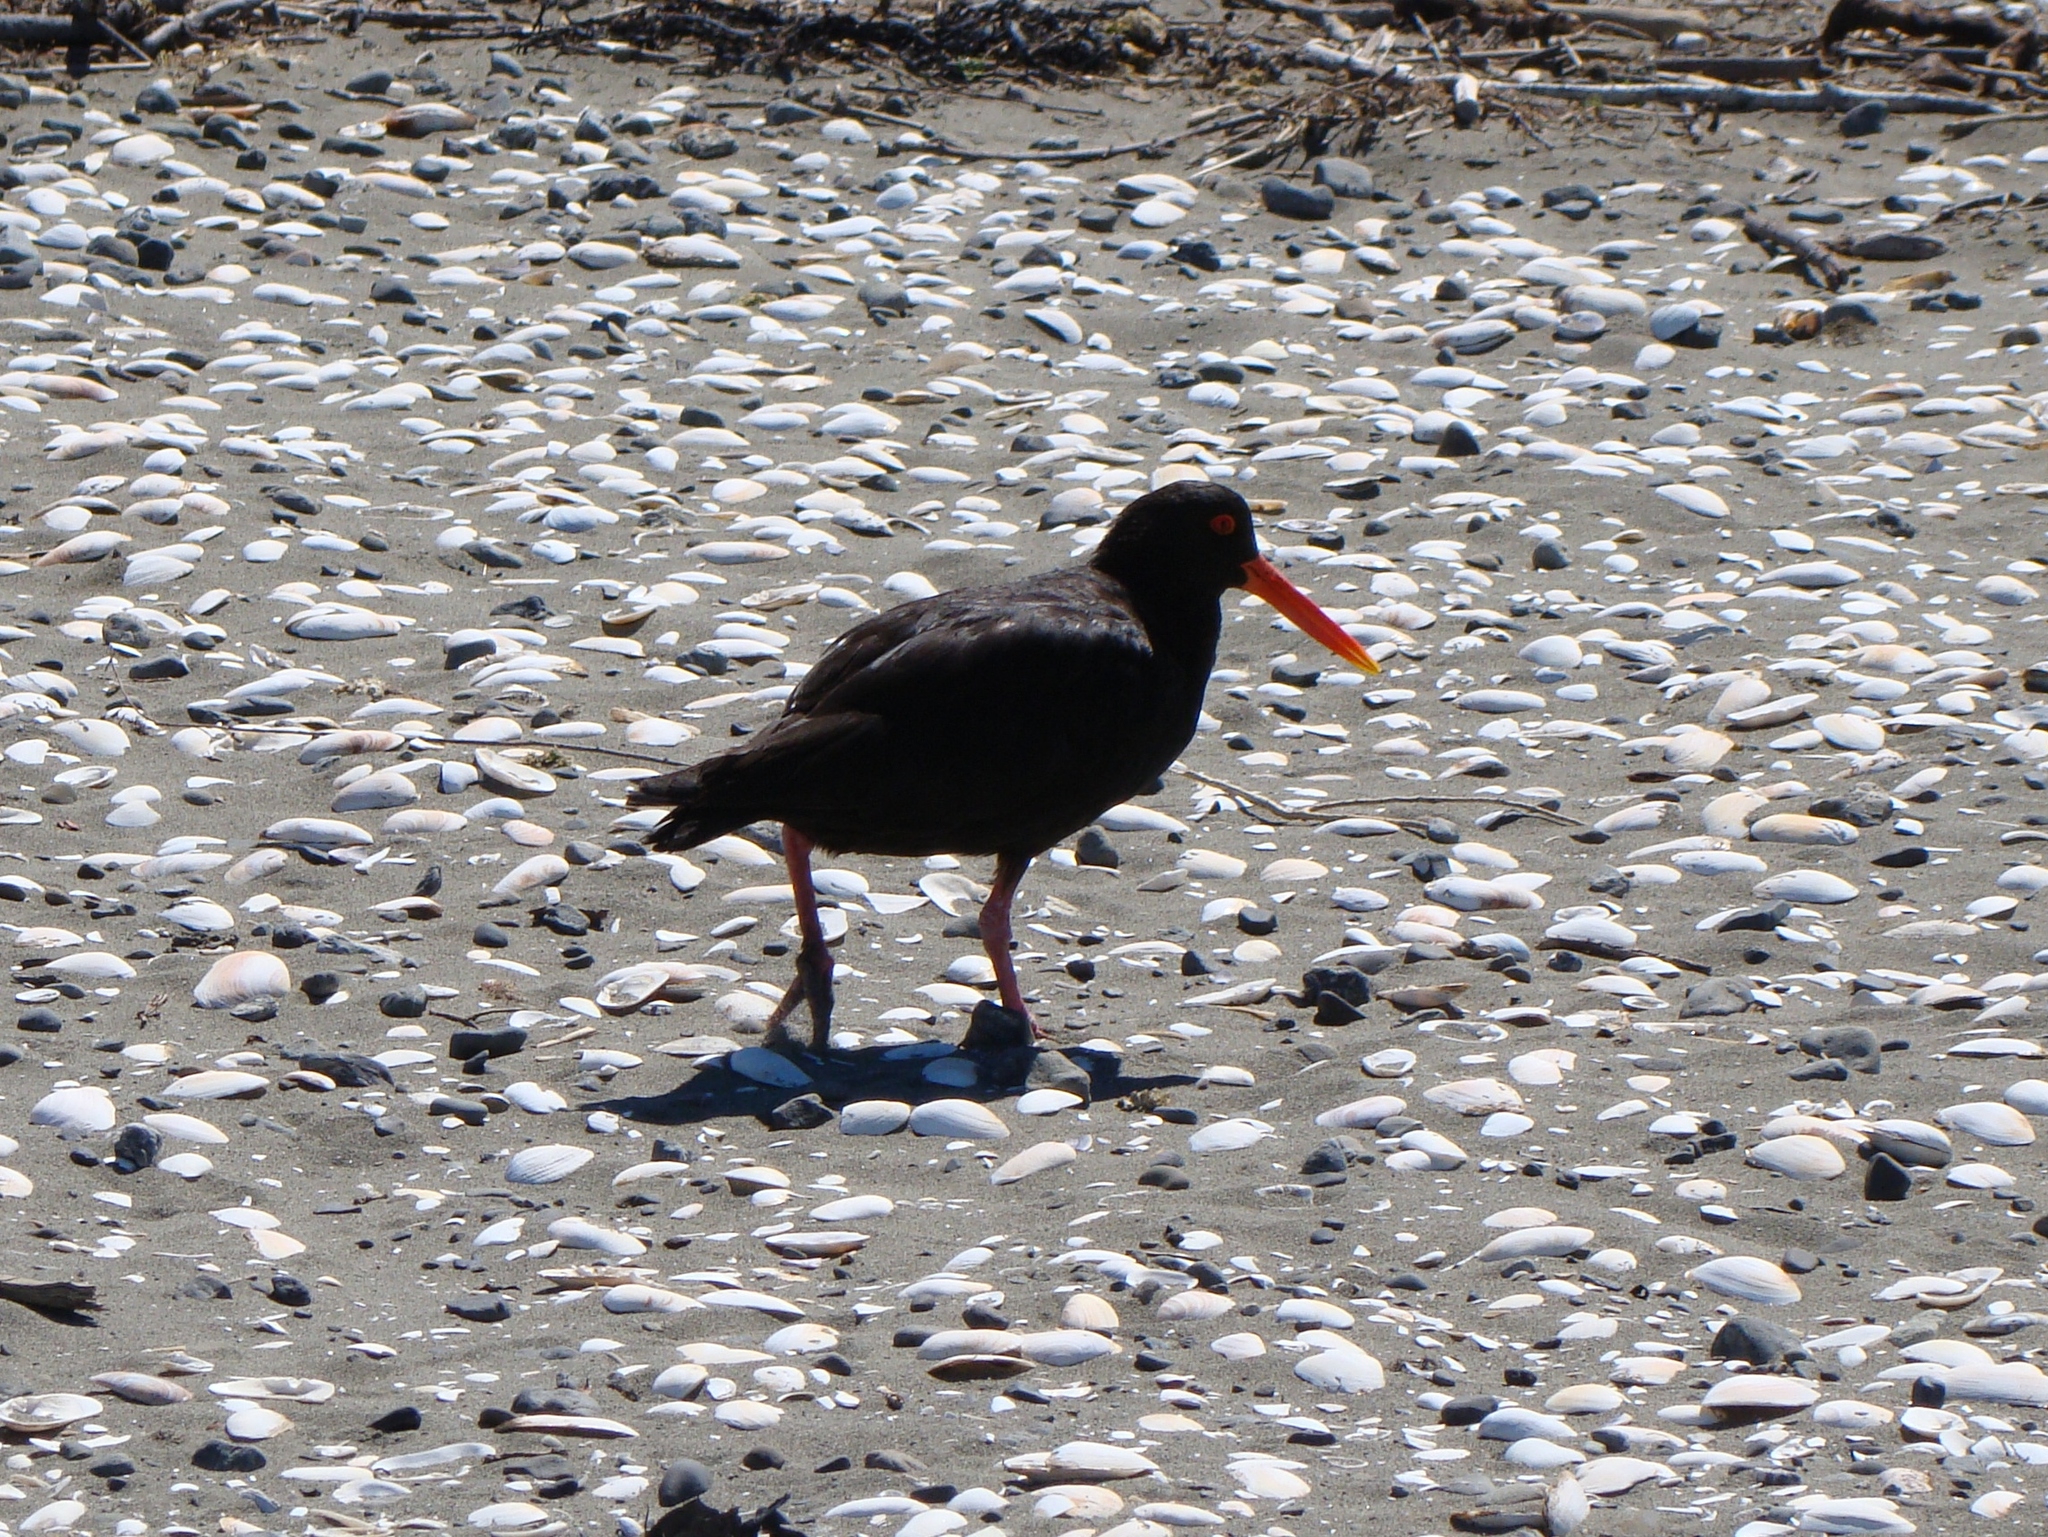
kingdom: Animalia
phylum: Chordata
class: Aves
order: Charadriiformes
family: Haematopodidae
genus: Haematopus
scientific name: Haematopus unicolor
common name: Variable oystercatcher
